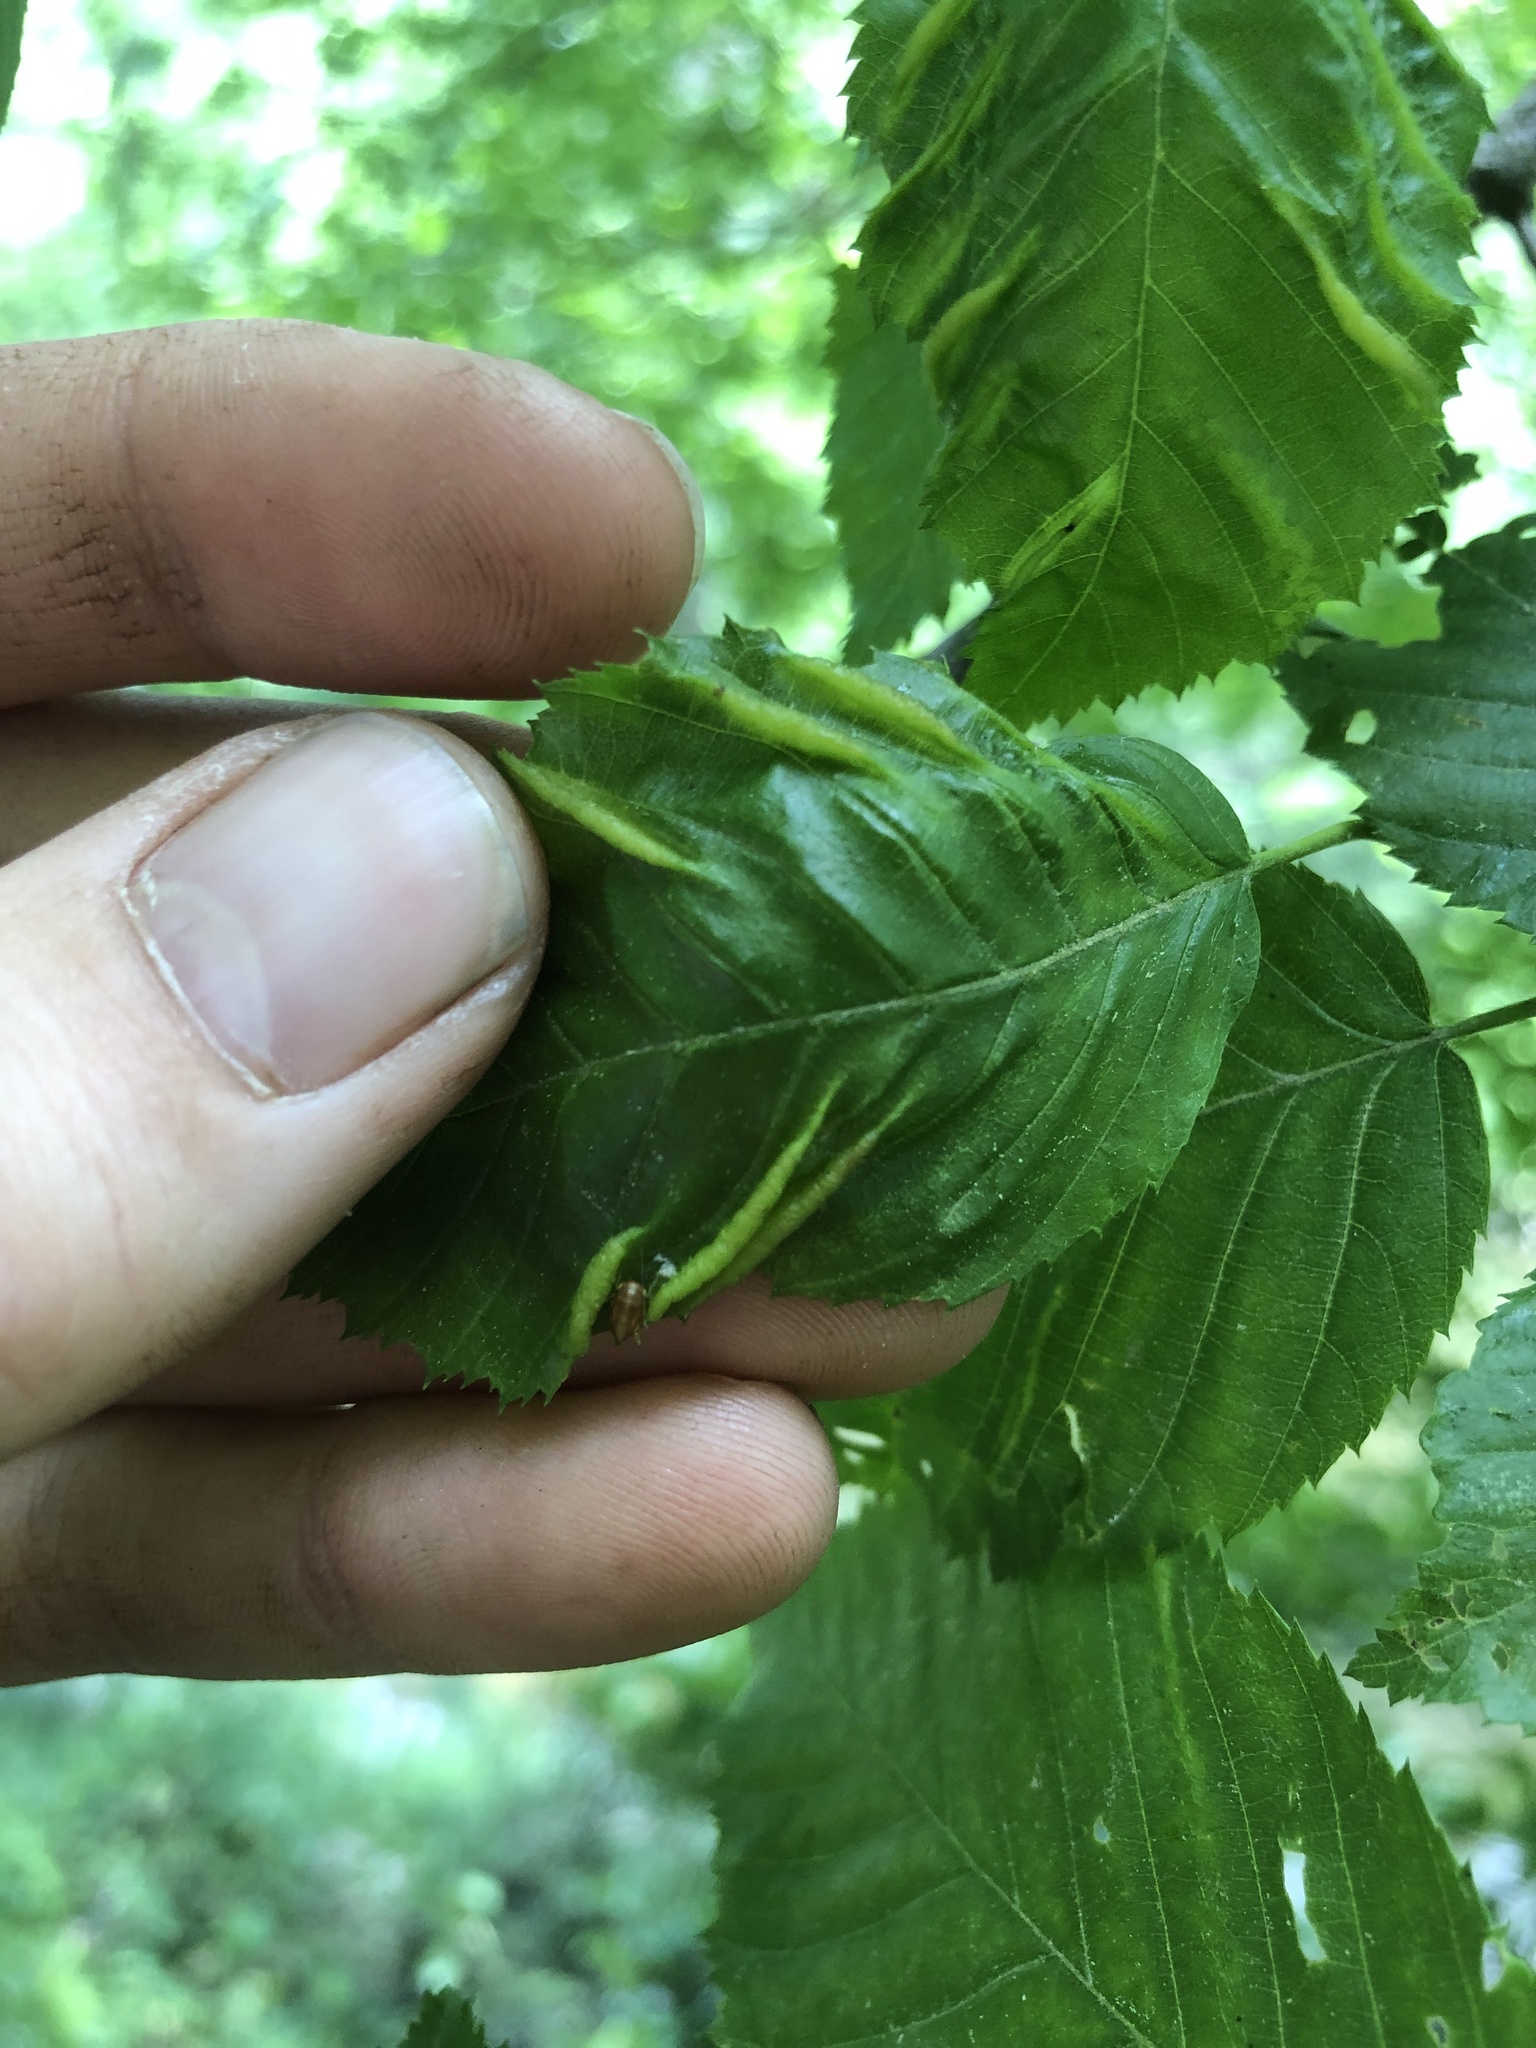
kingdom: Animalia
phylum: Arthropoda
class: Insecta
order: Diptera
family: Cecidomyiidae
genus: Dasineura
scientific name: Dasineura pudibunda
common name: Hornbeam leaf gall midge
